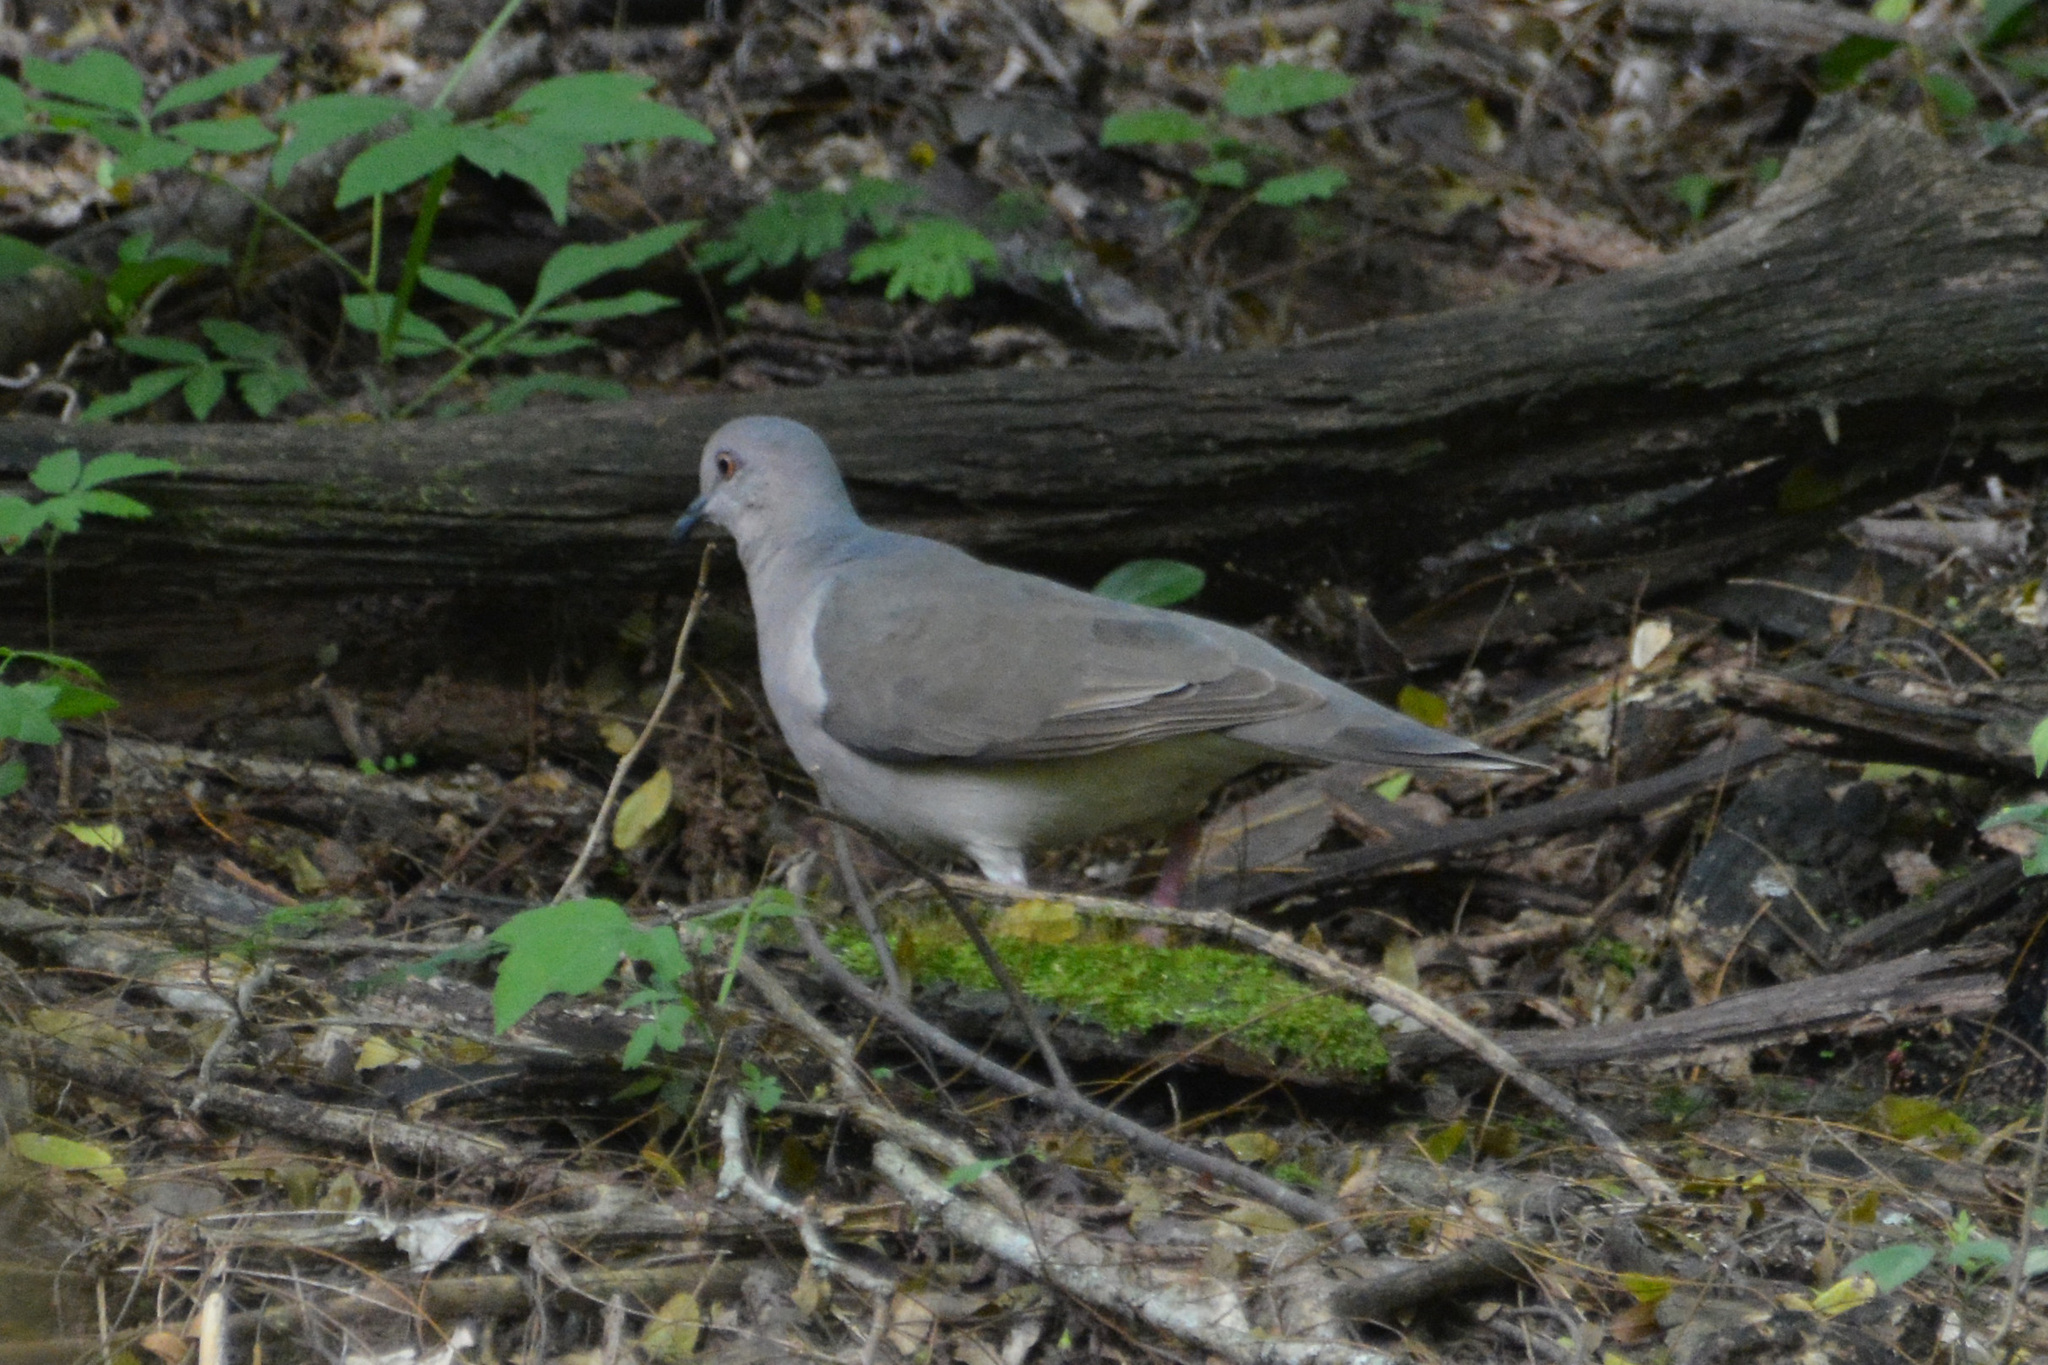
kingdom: Animalia
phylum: Chordata
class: Aves
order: Columbiformes
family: Columbidae
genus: Leptotila
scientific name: Leptotila verreauxi
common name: White-tipped dove
